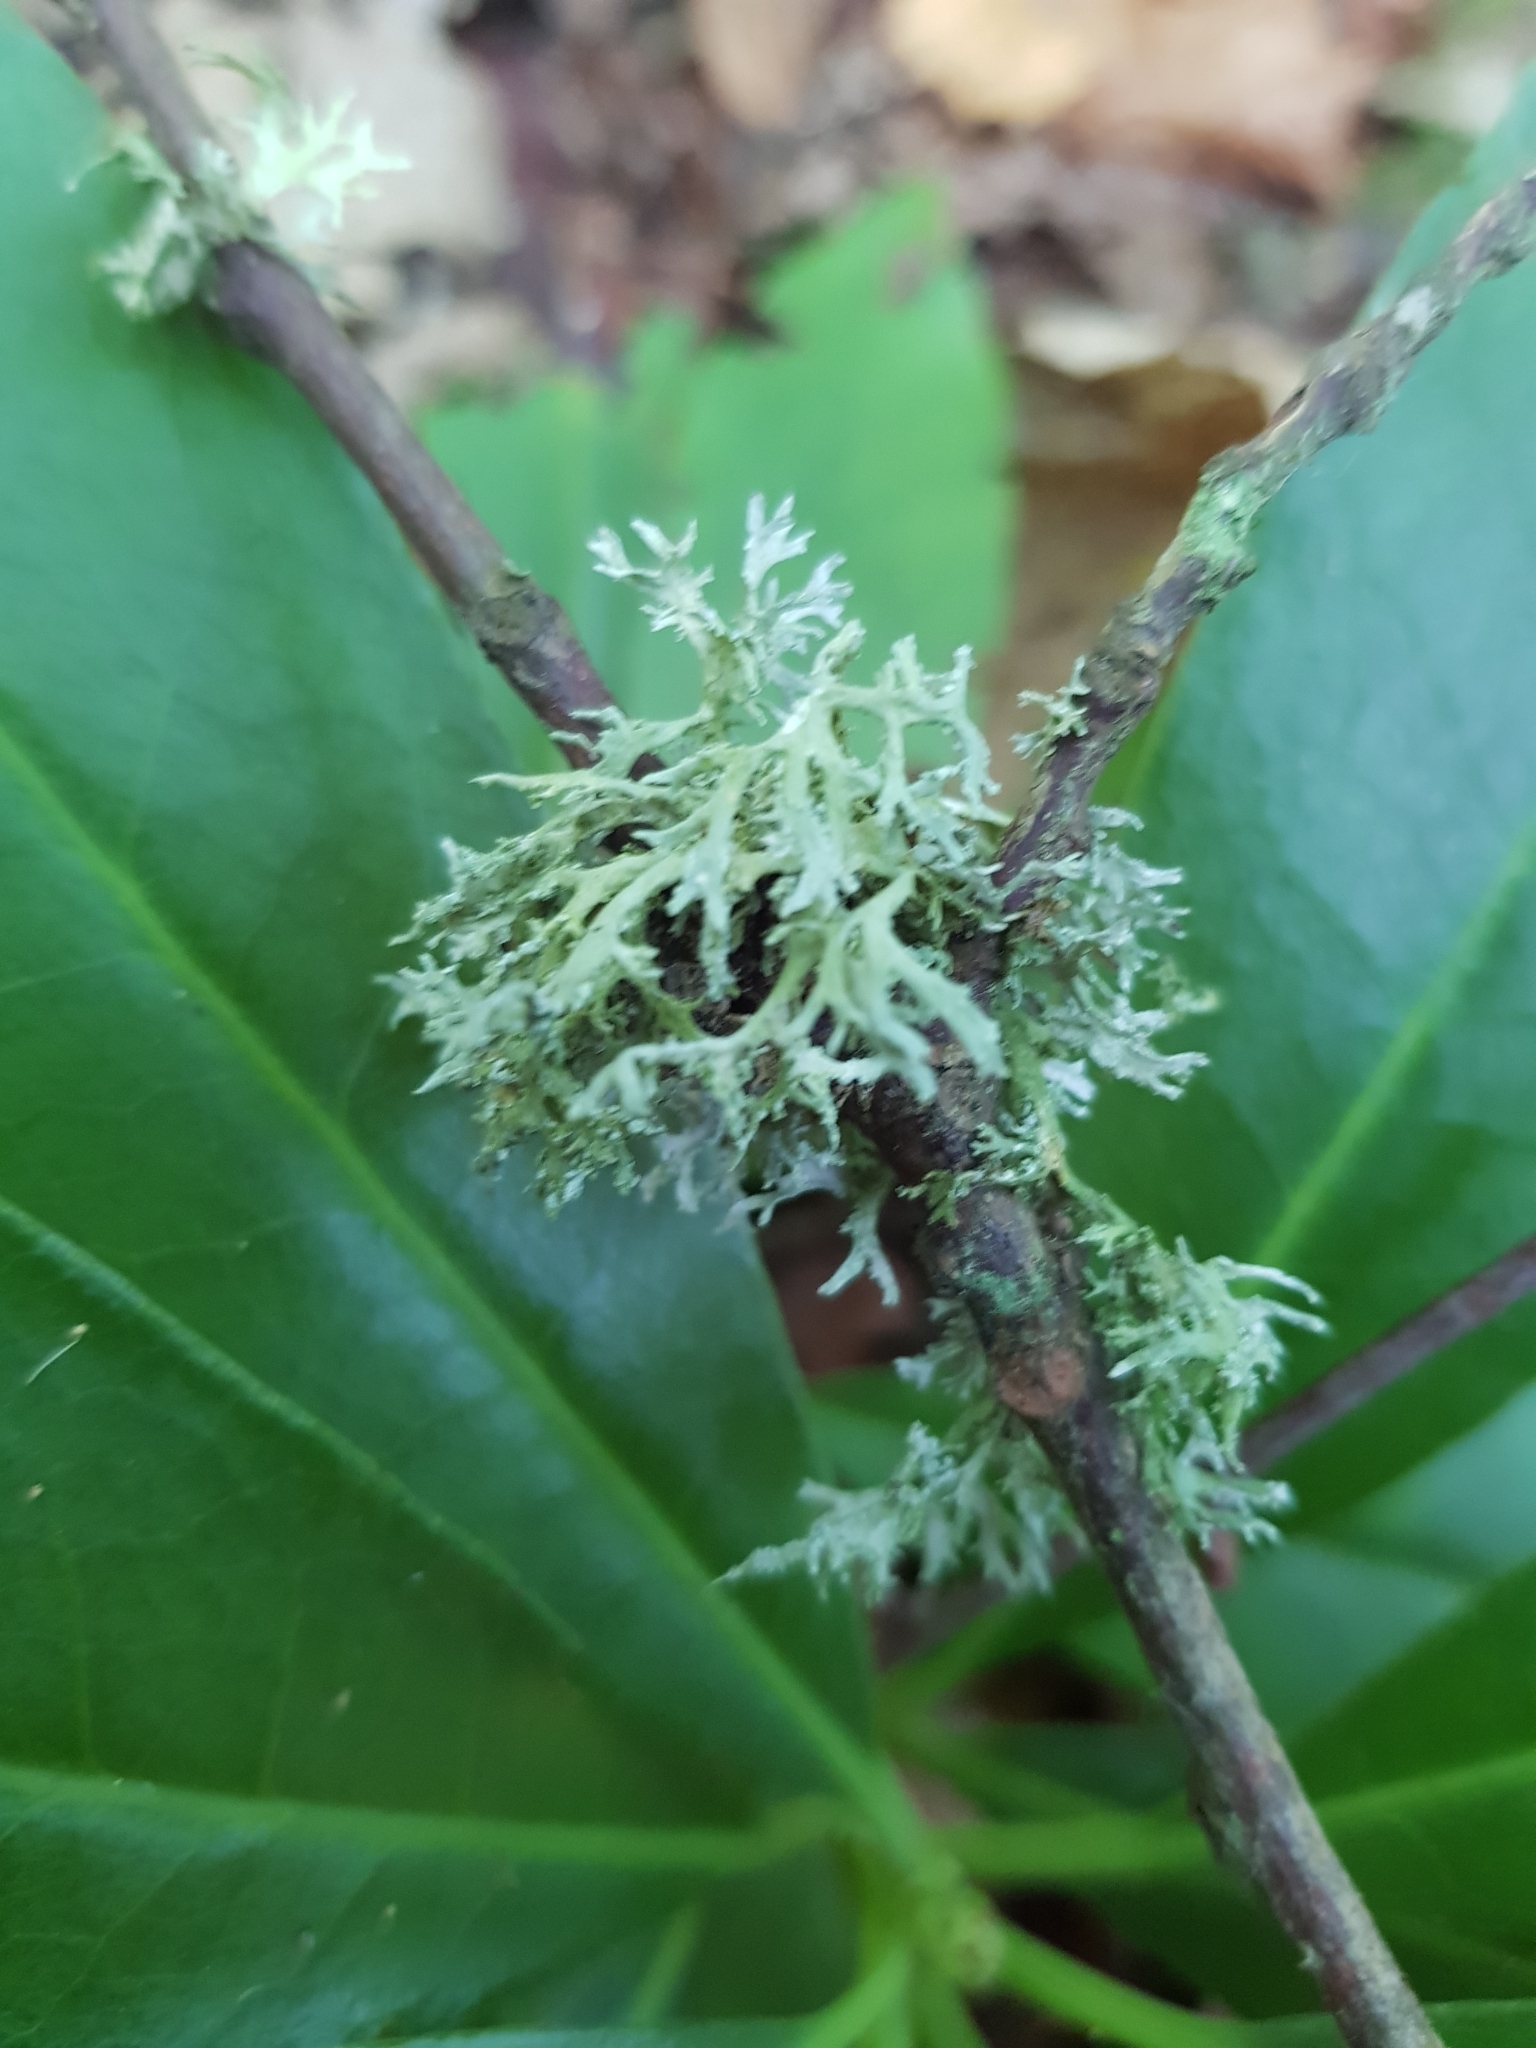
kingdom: Fungi
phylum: Ascomycota
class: Lecanoromycetes
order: Lecanorales
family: Parmeliaceae
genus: Evernia
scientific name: Evernia prunastri
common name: Oak moss
